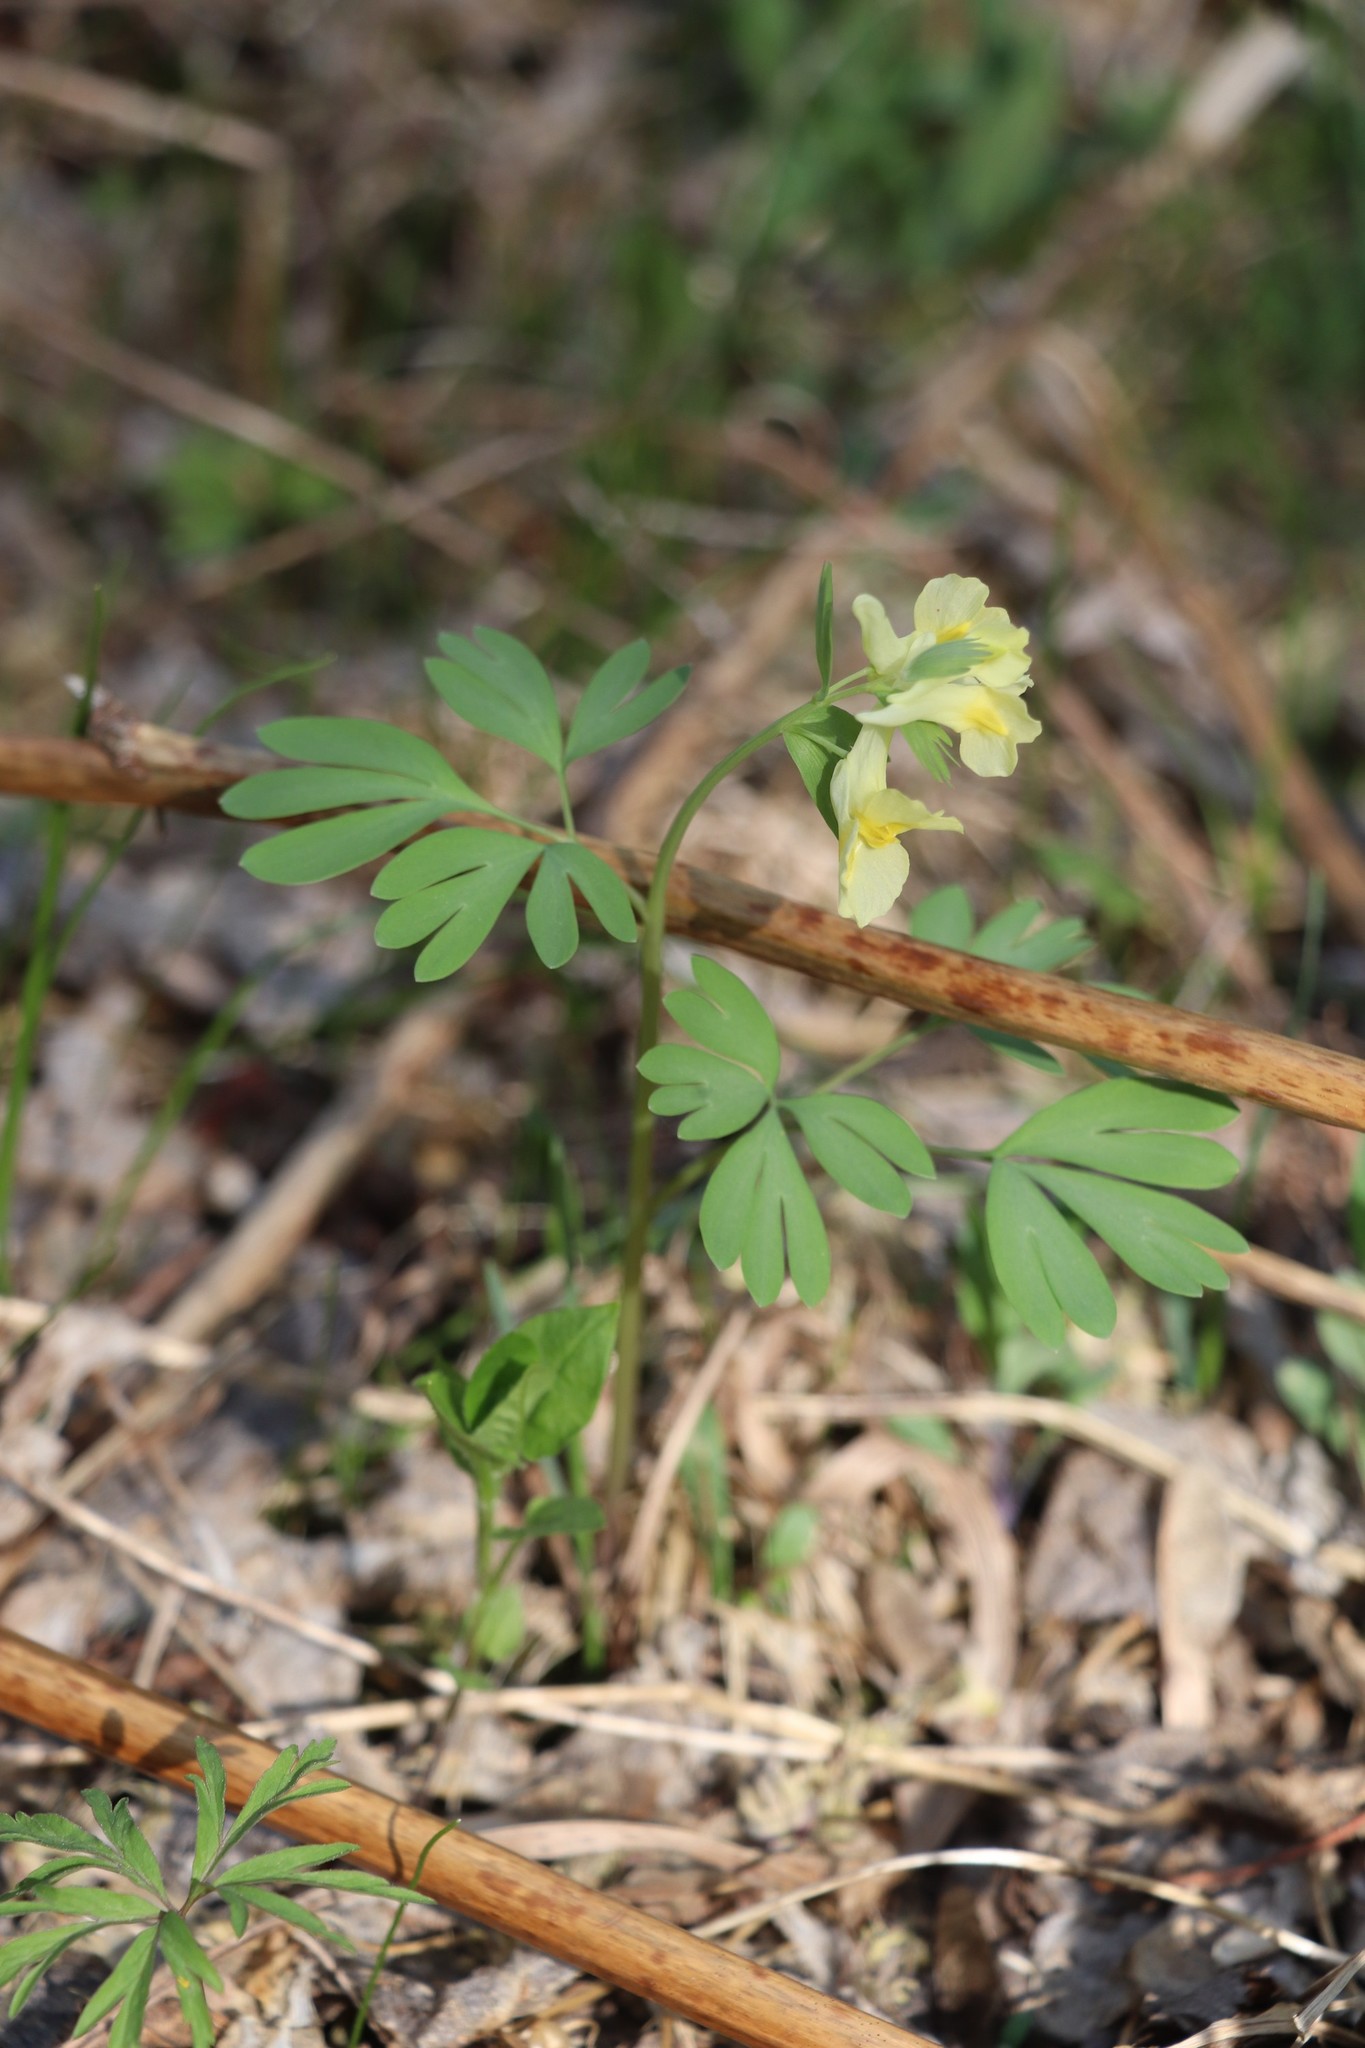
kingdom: Plantae
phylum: Tracheophyta
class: Magnoliopsida
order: Ranunculales
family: Papaveraceae
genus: Corydalis
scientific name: Corydalis bracteata
